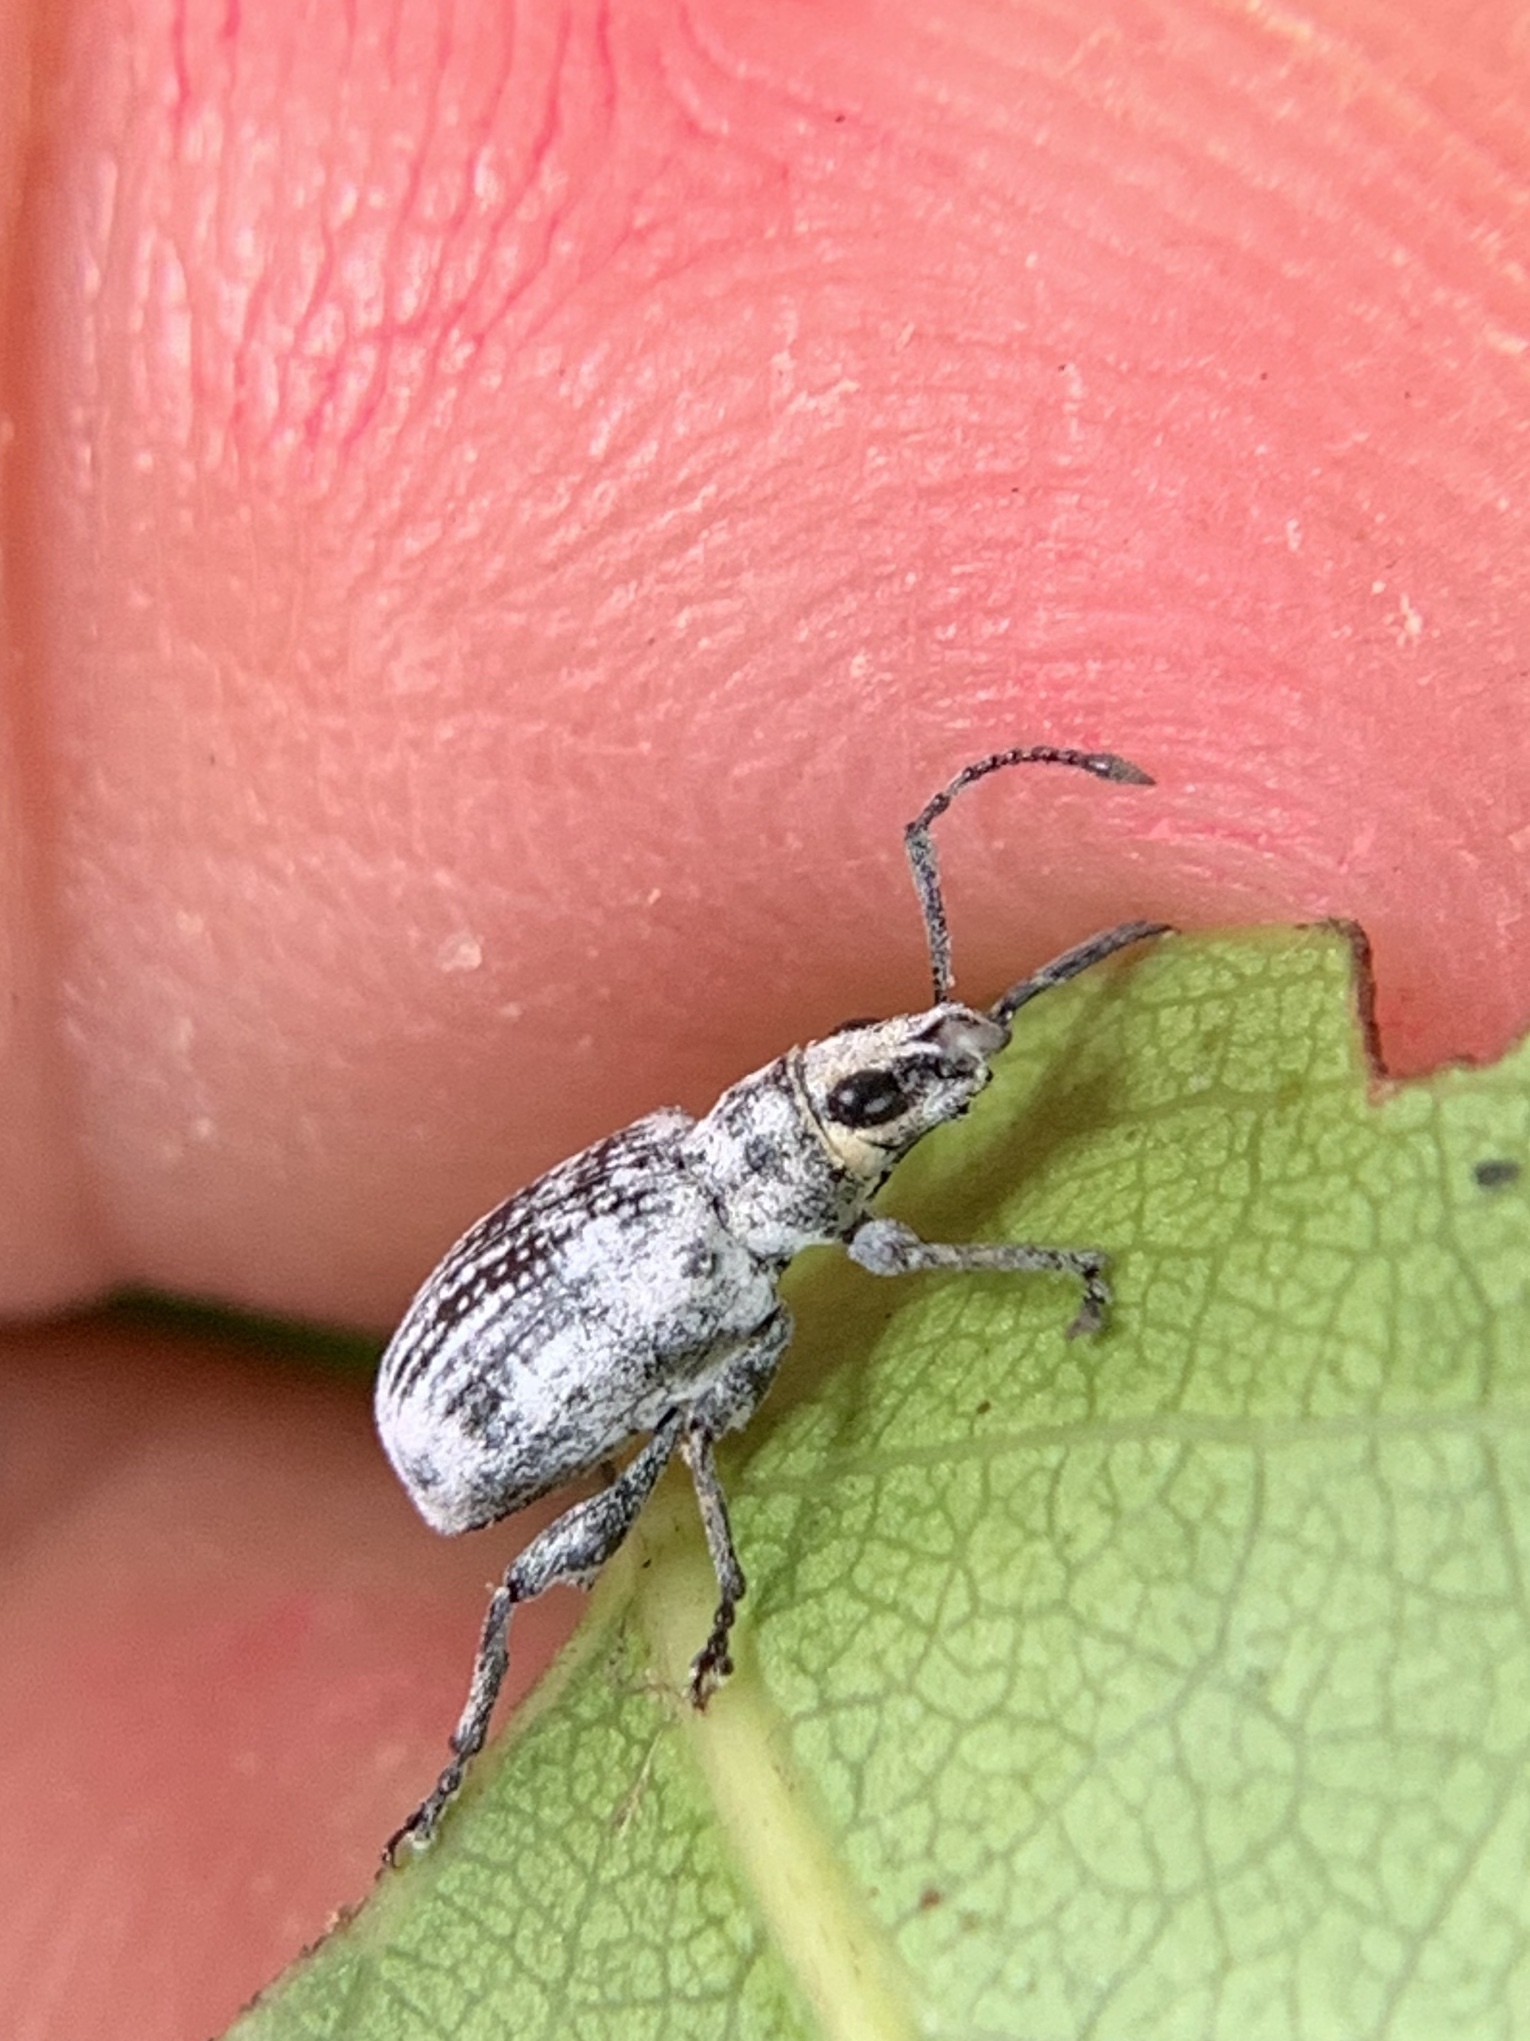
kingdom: Animalia
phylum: Arthropoda
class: Insecta
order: Coleoptera
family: Curculionidae
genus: Myllocerus
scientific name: Myllocerus undecimpustulatus
